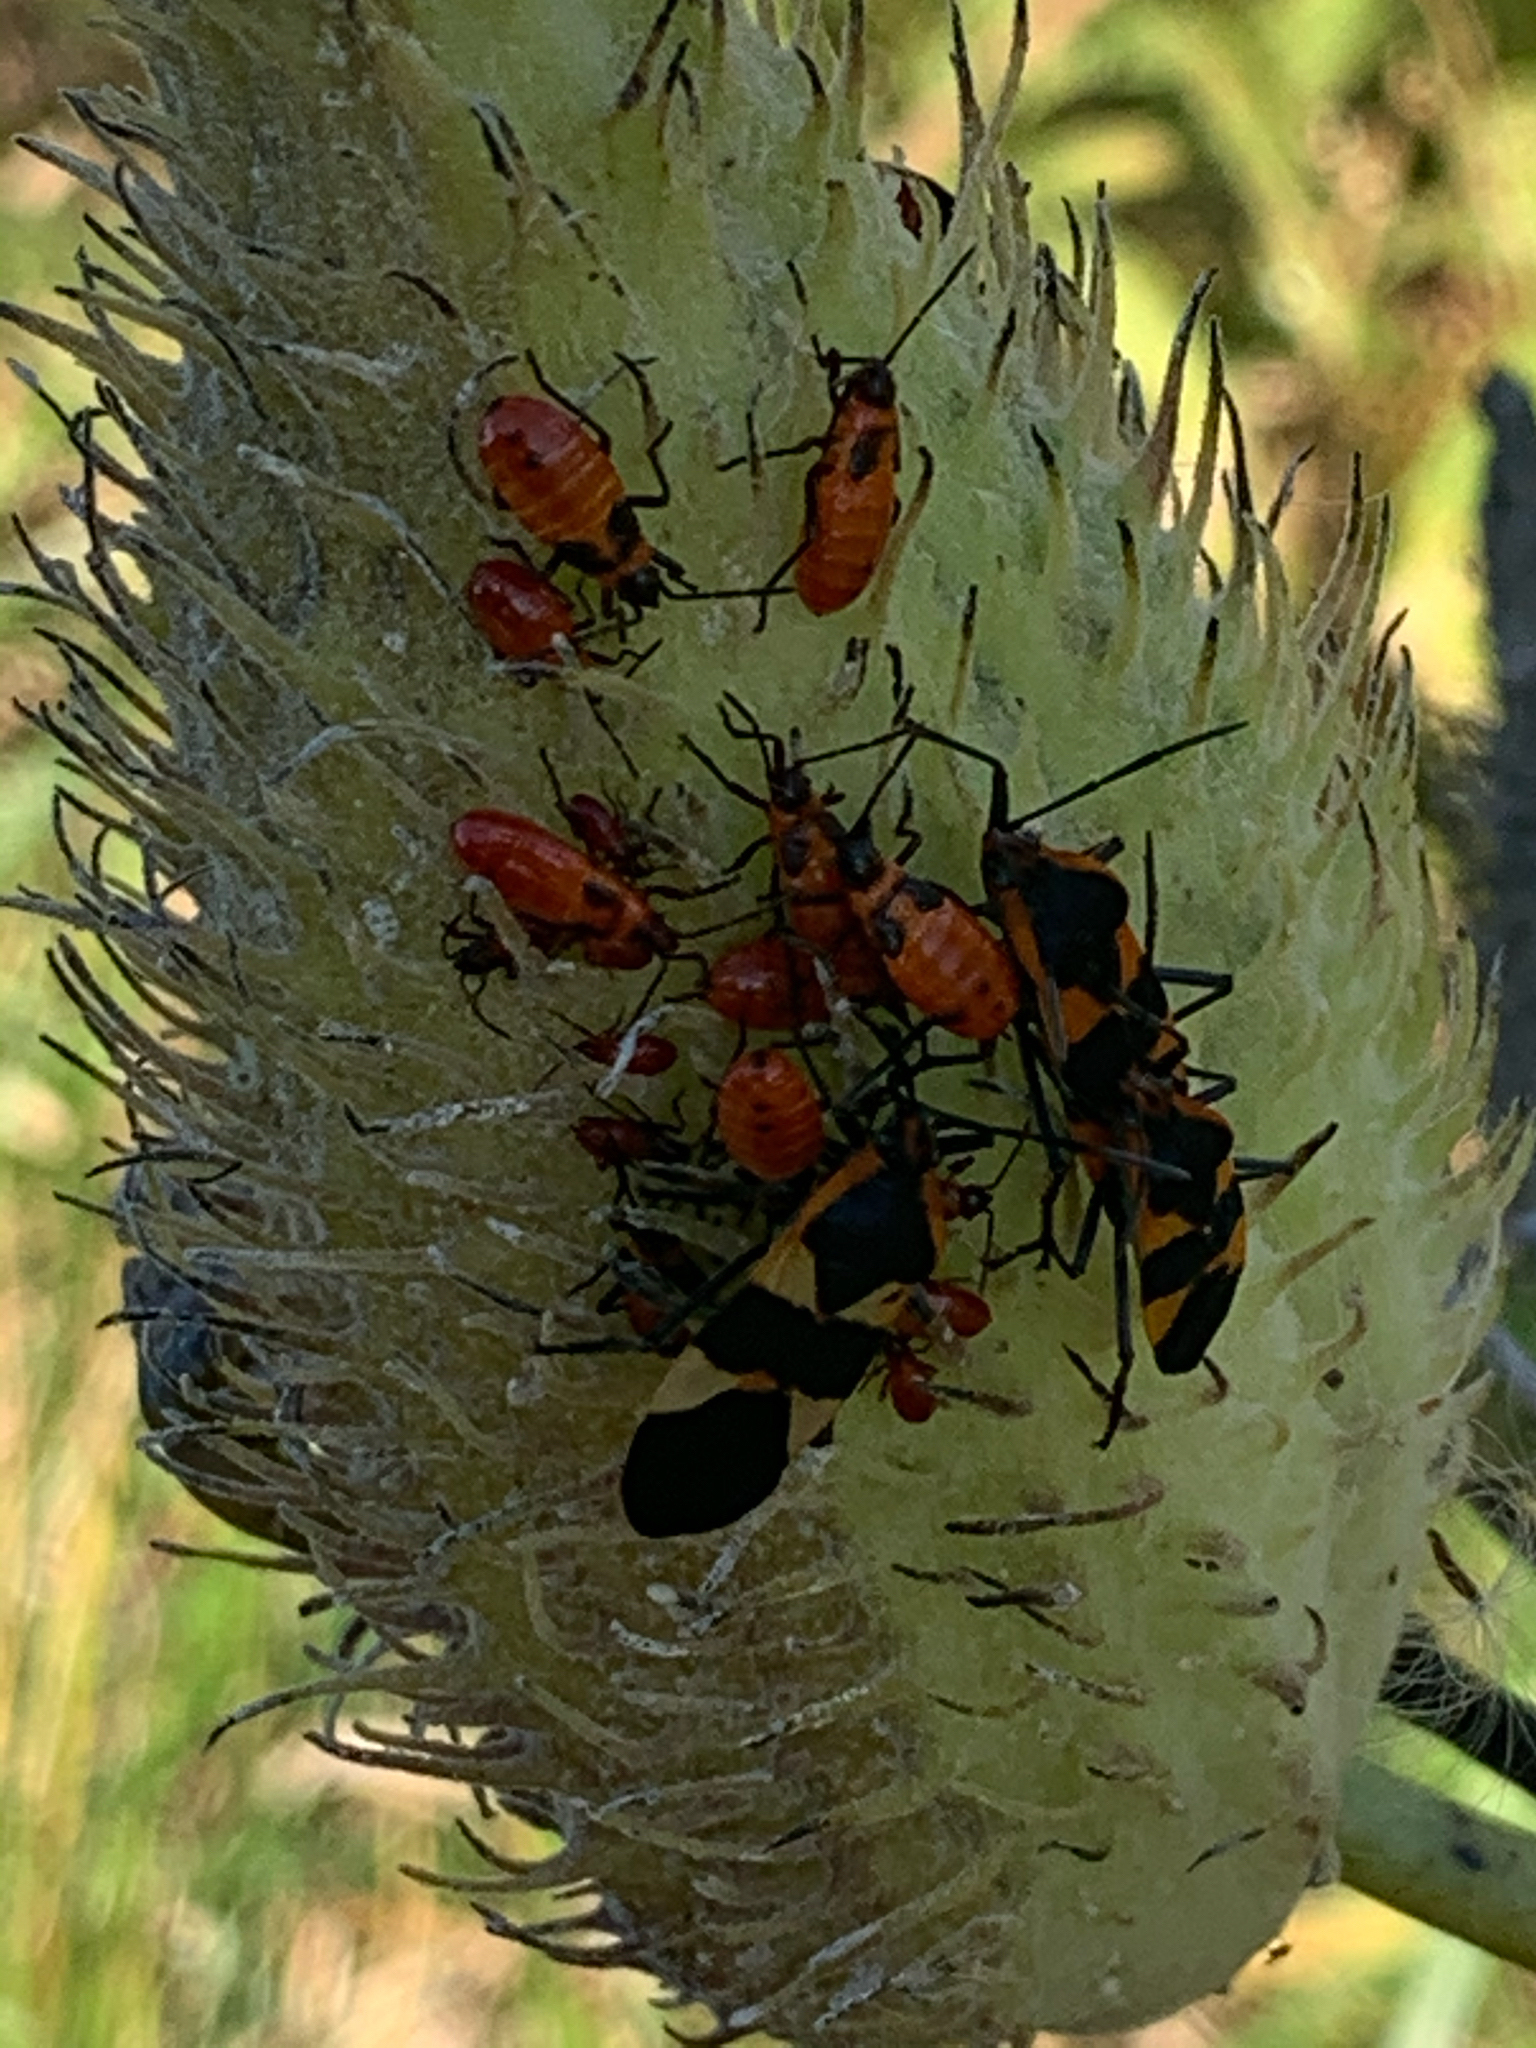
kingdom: Animalia
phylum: Arthropoda
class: Insecta
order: Hemiptera
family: Lygaeidae
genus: Oncopeltus
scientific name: Oncopeltus fasciatus
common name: Large milkweed bug
